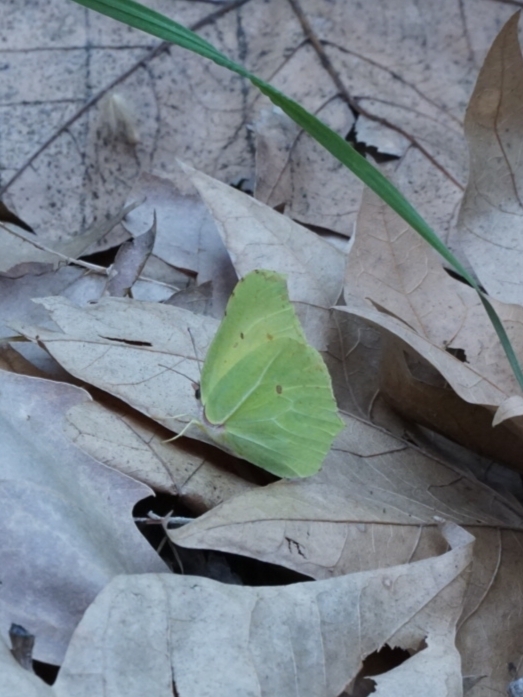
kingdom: Animalia
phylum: Arthropoda
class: Insecta
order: Lepidoptera
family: Pieridae
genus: Gonepteryx
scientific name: Gonepteryx rhamni
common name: Brimstone
